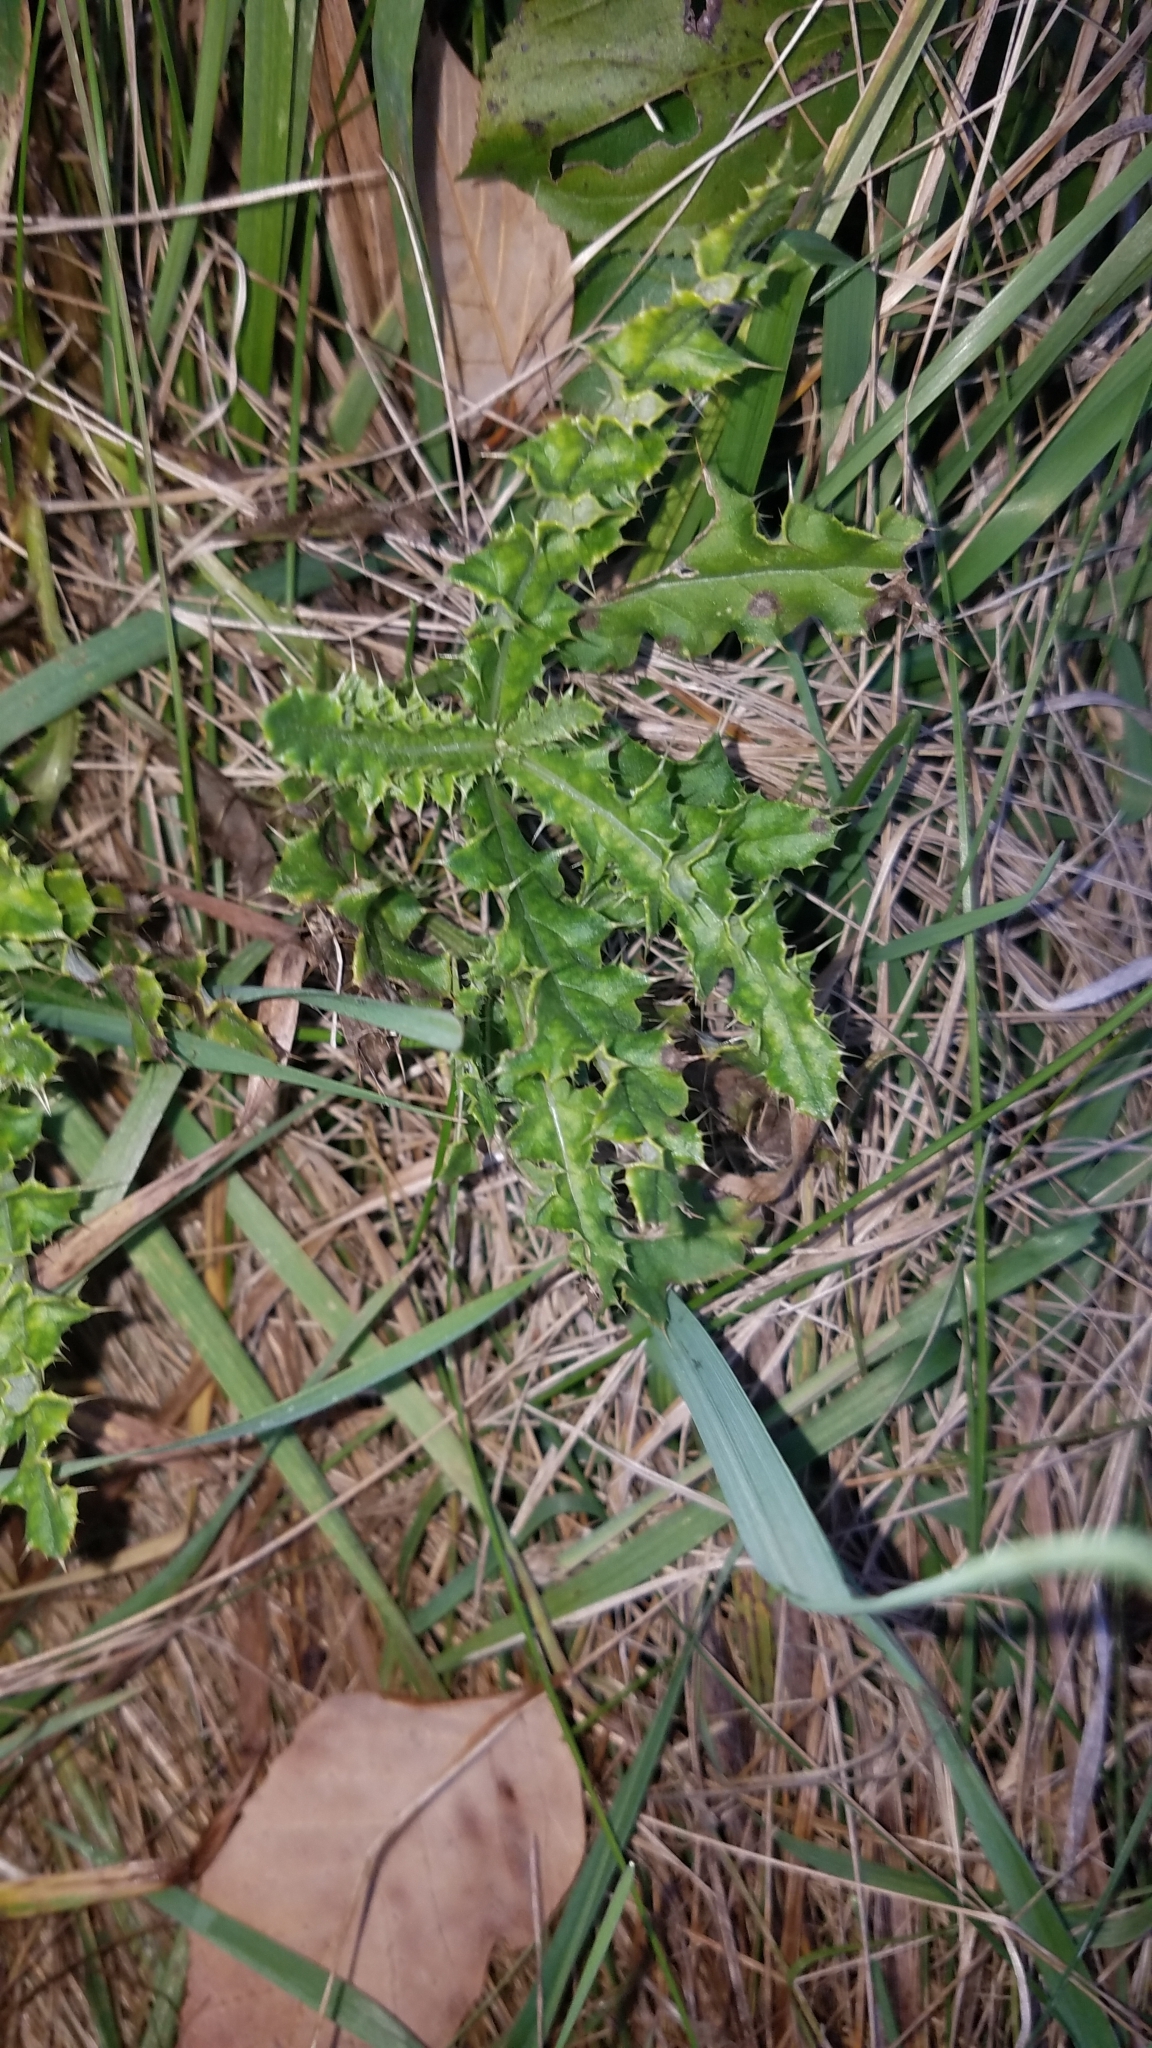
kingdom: Plantae
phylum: Tracheophyta
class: Magnoliopsida
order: Asterales
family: Asteraceae
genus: Cirsium
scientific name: Cirsium arvense
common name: Creeping thistle
